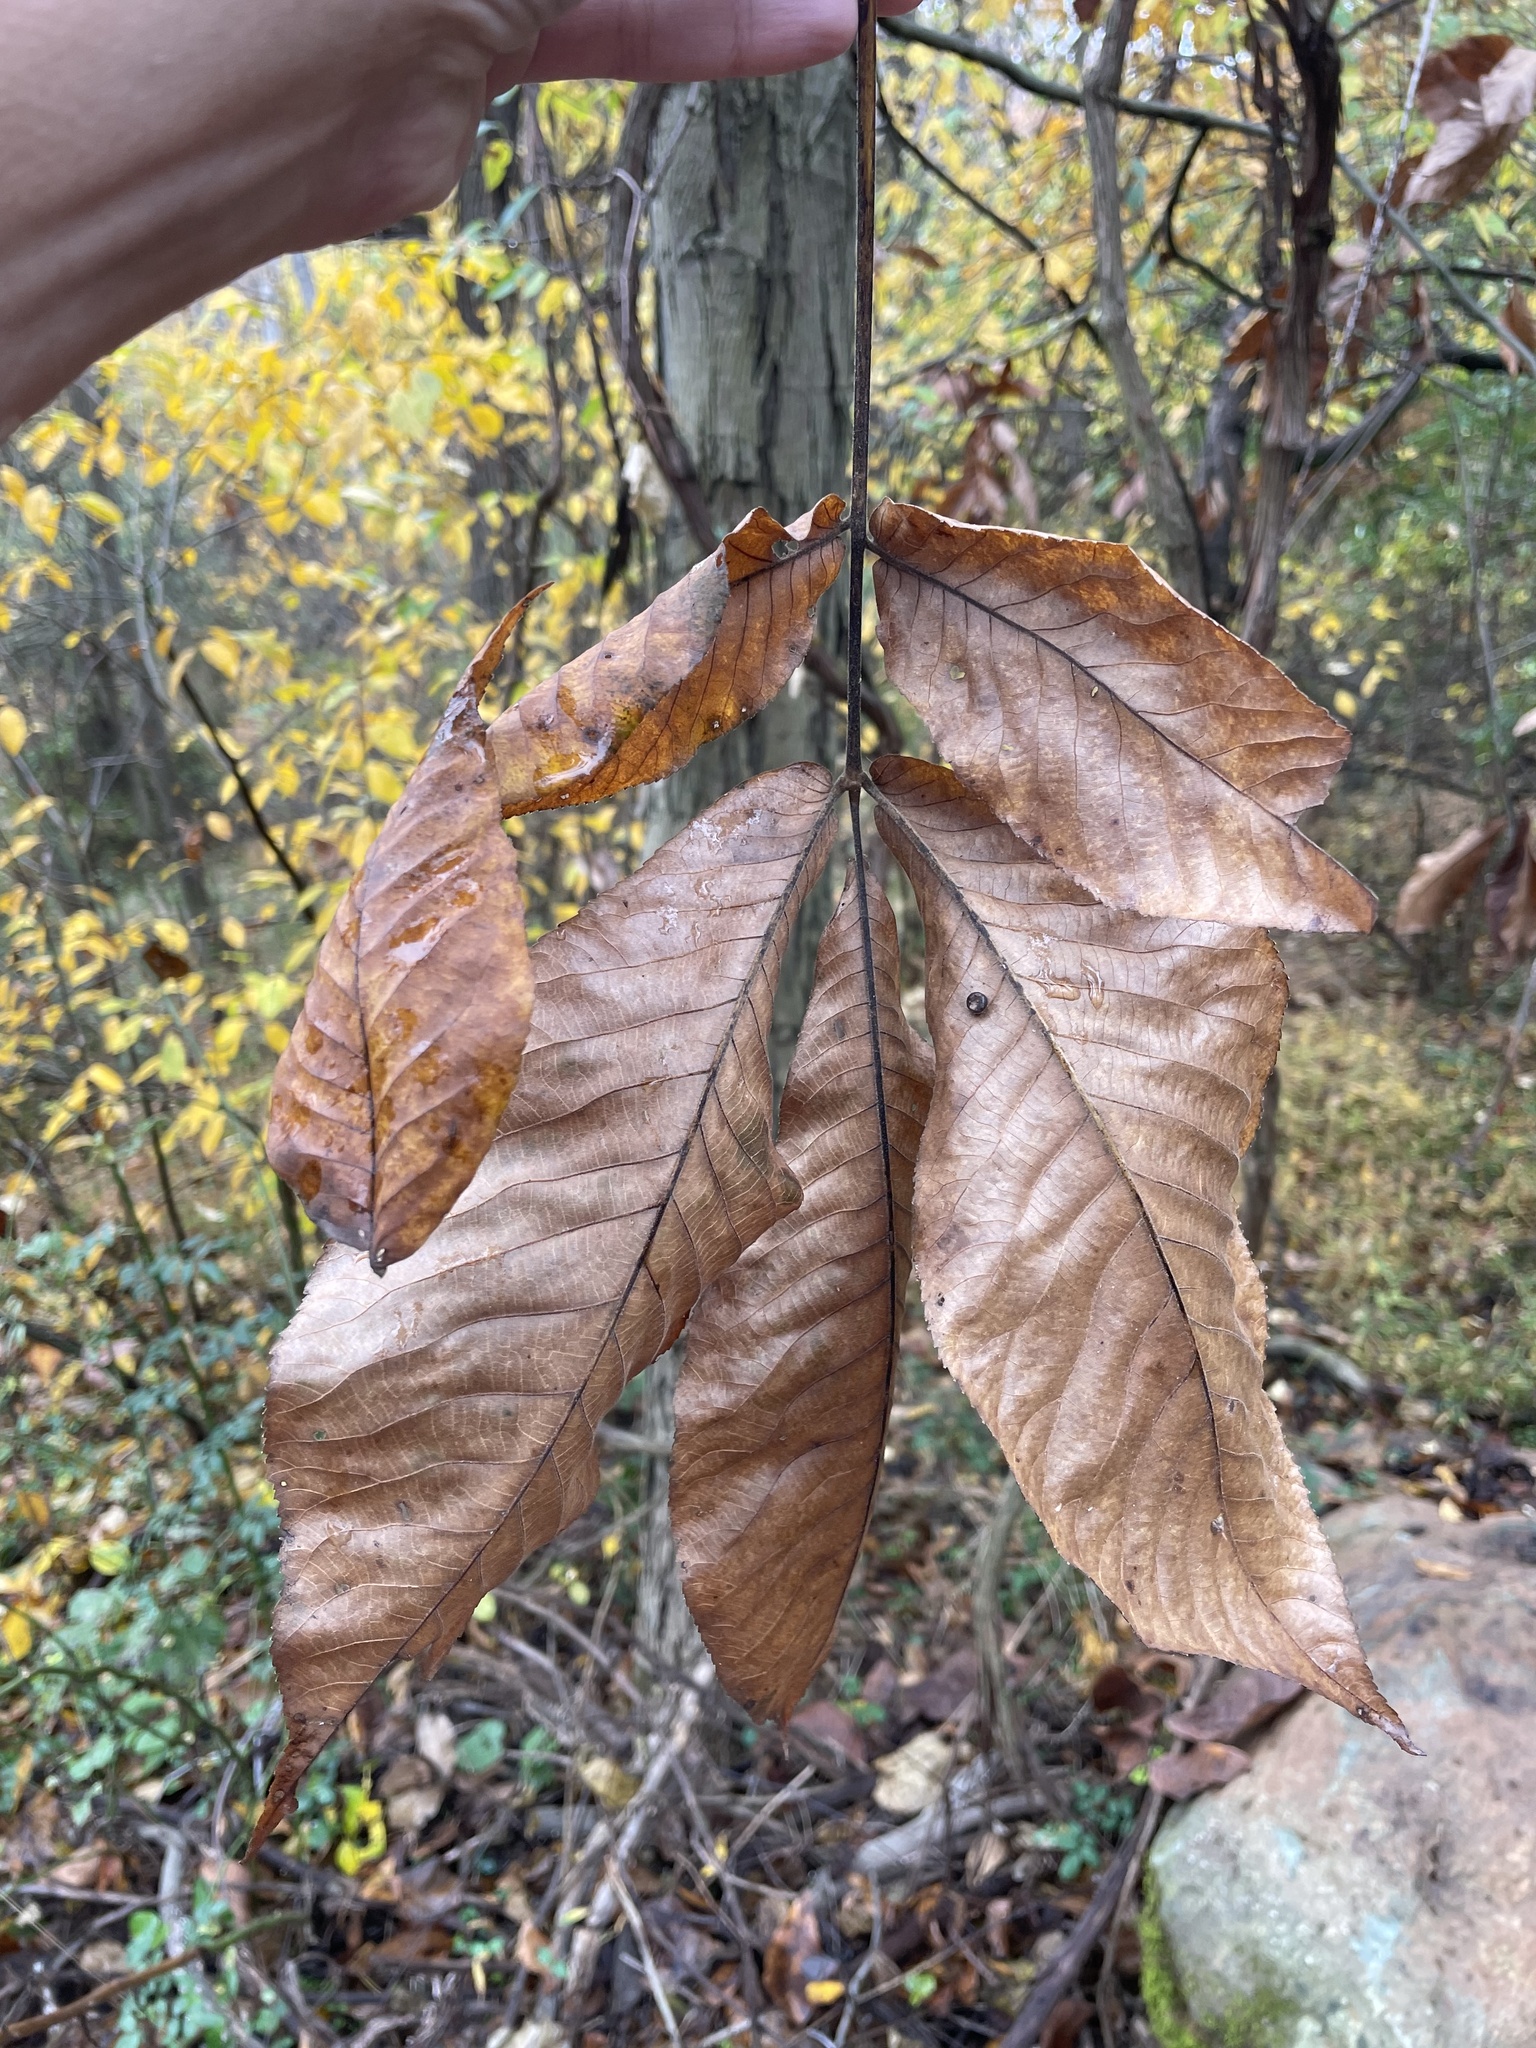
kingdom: Plantae
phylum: Tracheophyta
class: Magnoliopsida
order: Fagales
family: Juglandaceae
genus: Carya
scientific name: Carya ovata
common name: Shagbark hickory
